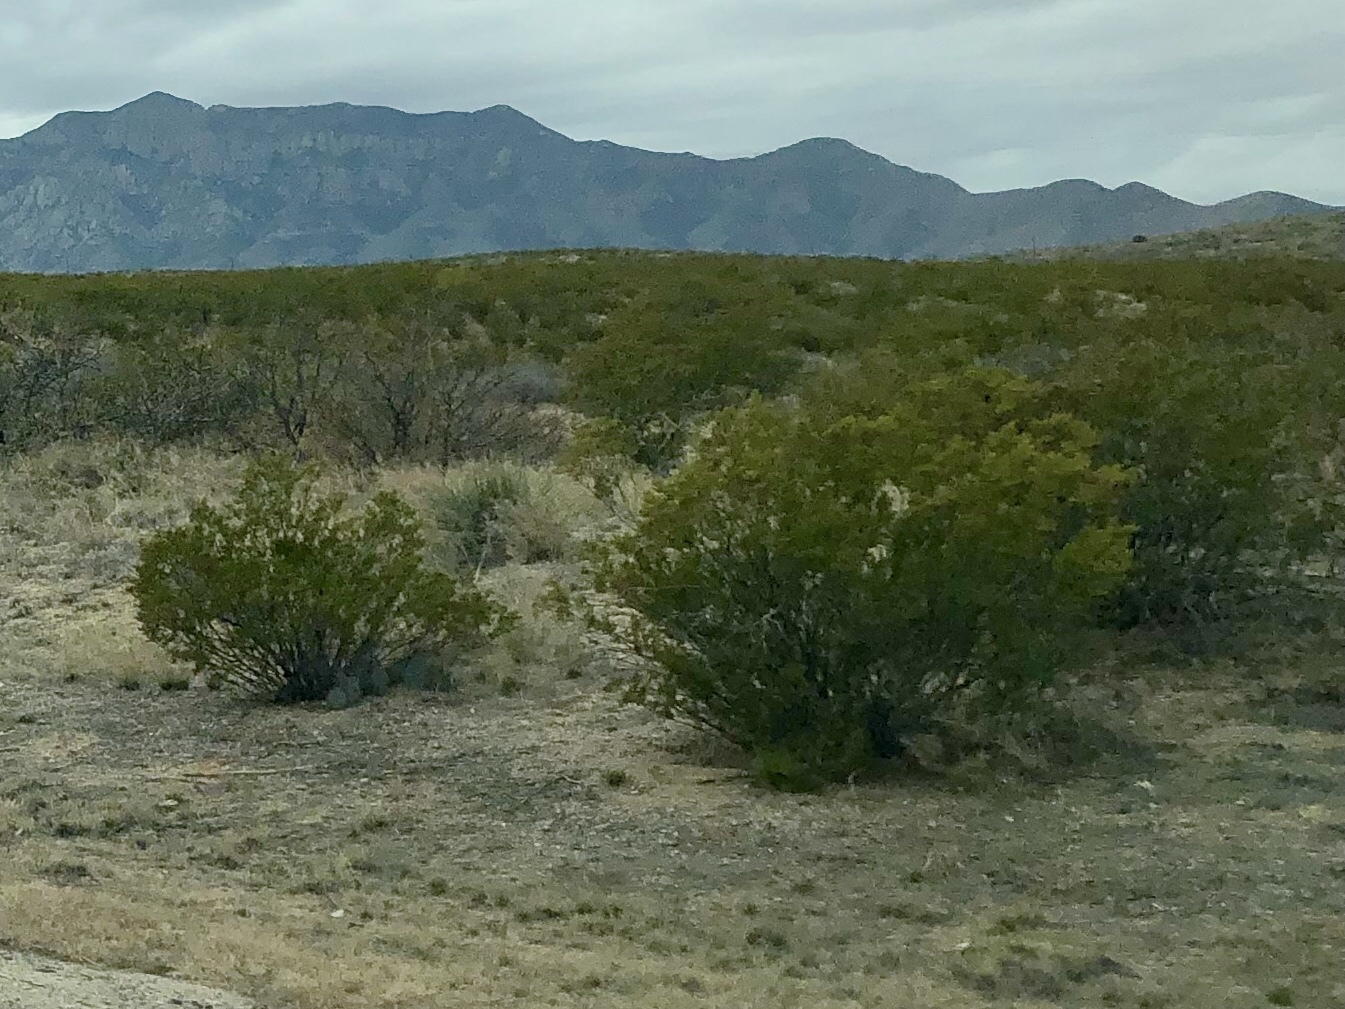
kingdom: Plantae
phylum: Tracheophyta
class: Magnoliopsida
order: Zygophyllales
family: Zygophyllaceae
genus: Larrea
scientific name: Larrea tridentata
